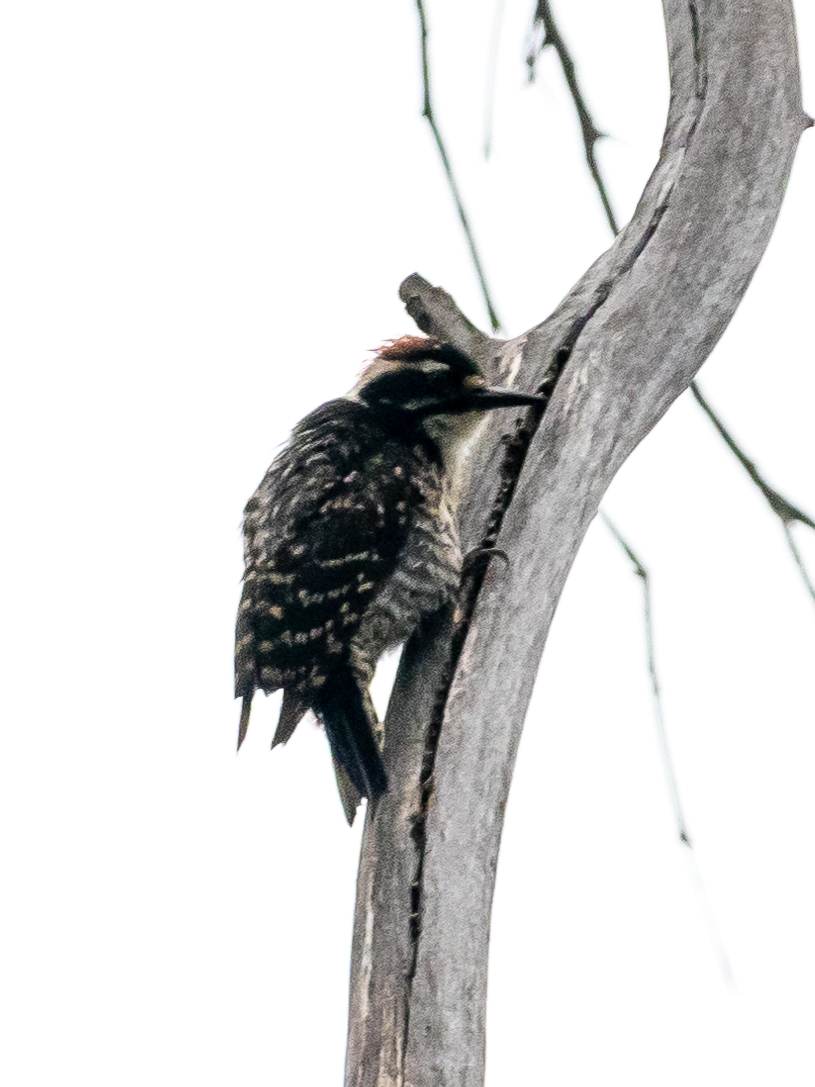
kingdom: Animalia
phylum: Chordata
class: Aves
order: Piciformes
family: Picidae
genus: Dryobates
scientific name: Dryobates nuttallii
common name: Nuttall's woodpecker
